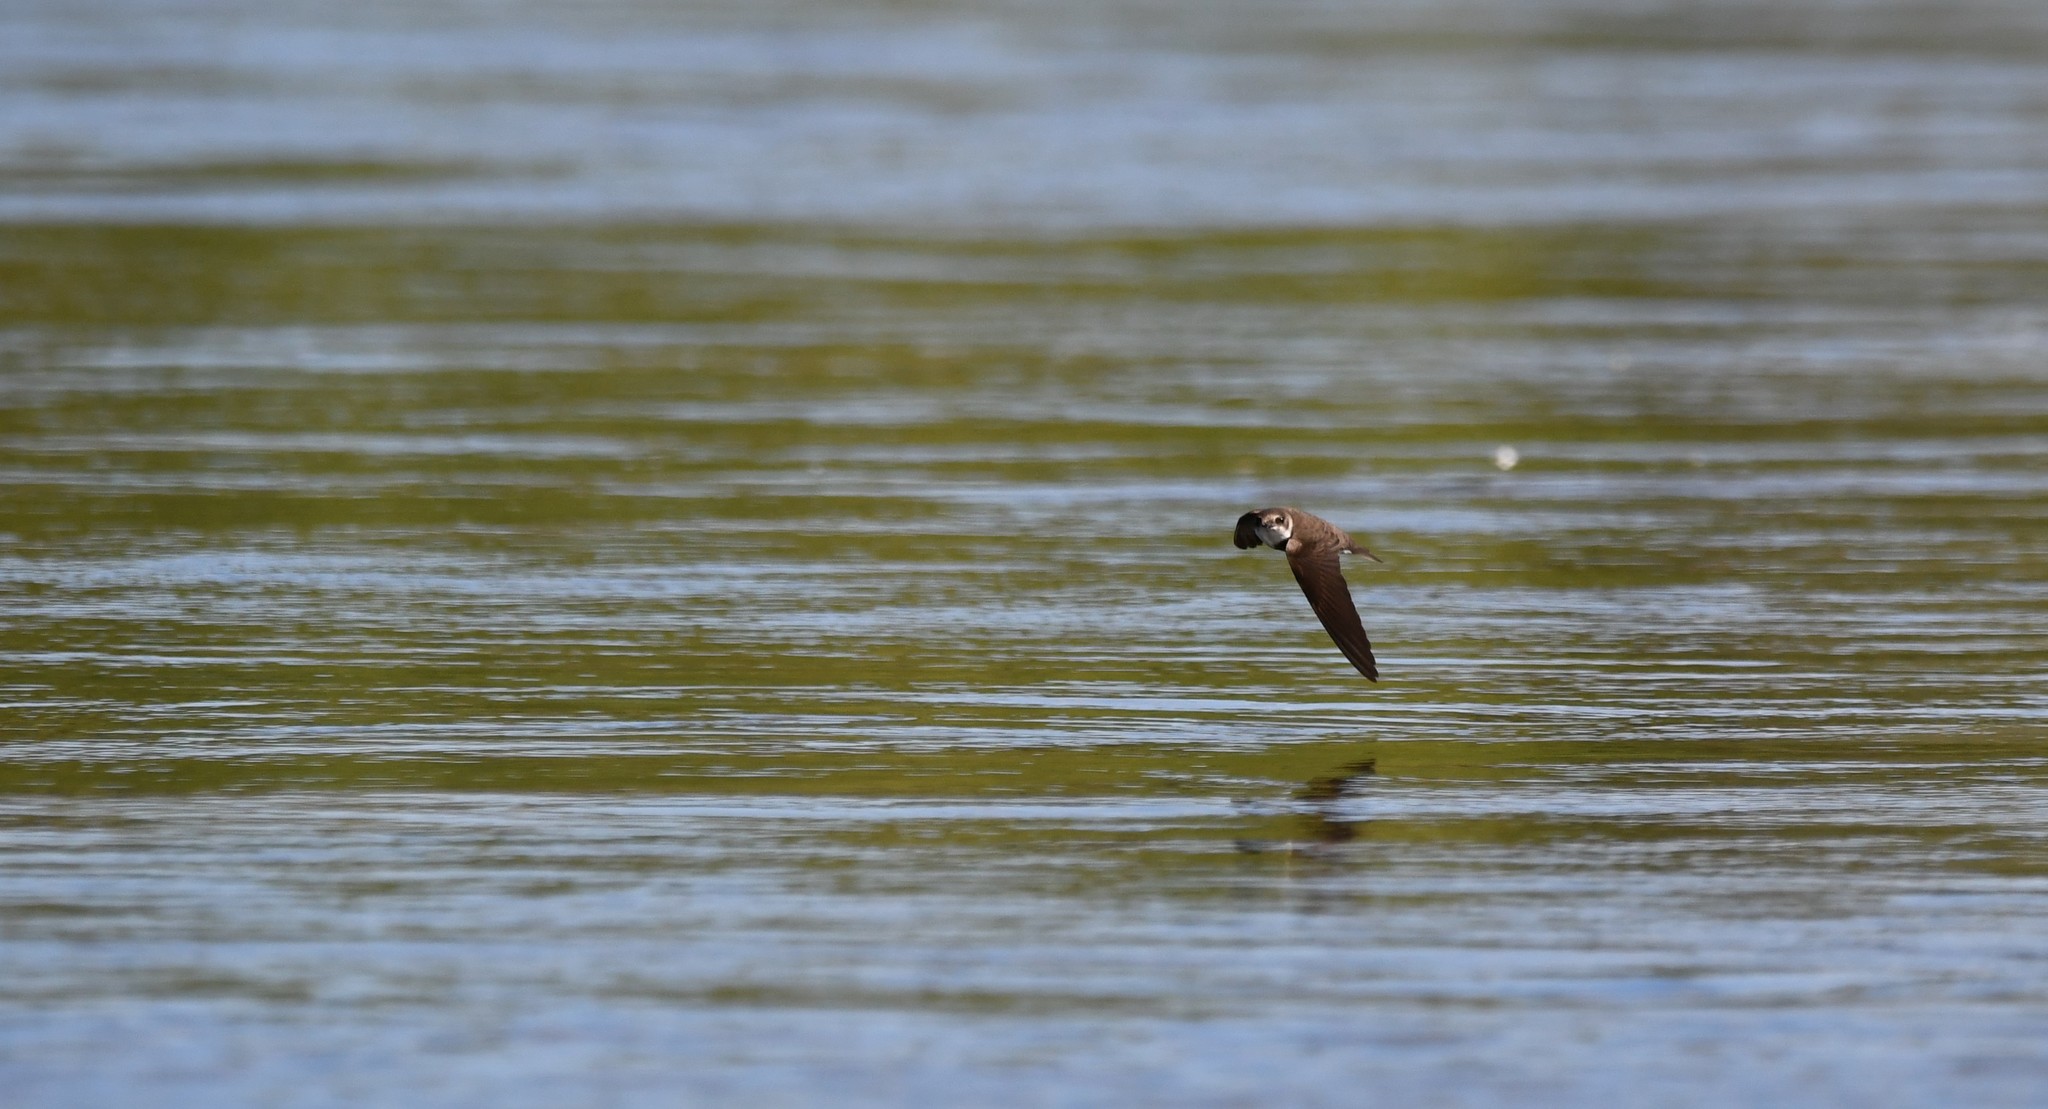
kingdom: Animalia
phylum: Chordata
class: Aves
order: Passeriformes
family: Hirundinidae
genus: Riparia
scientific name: Riparia riparia
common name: Sand martin
